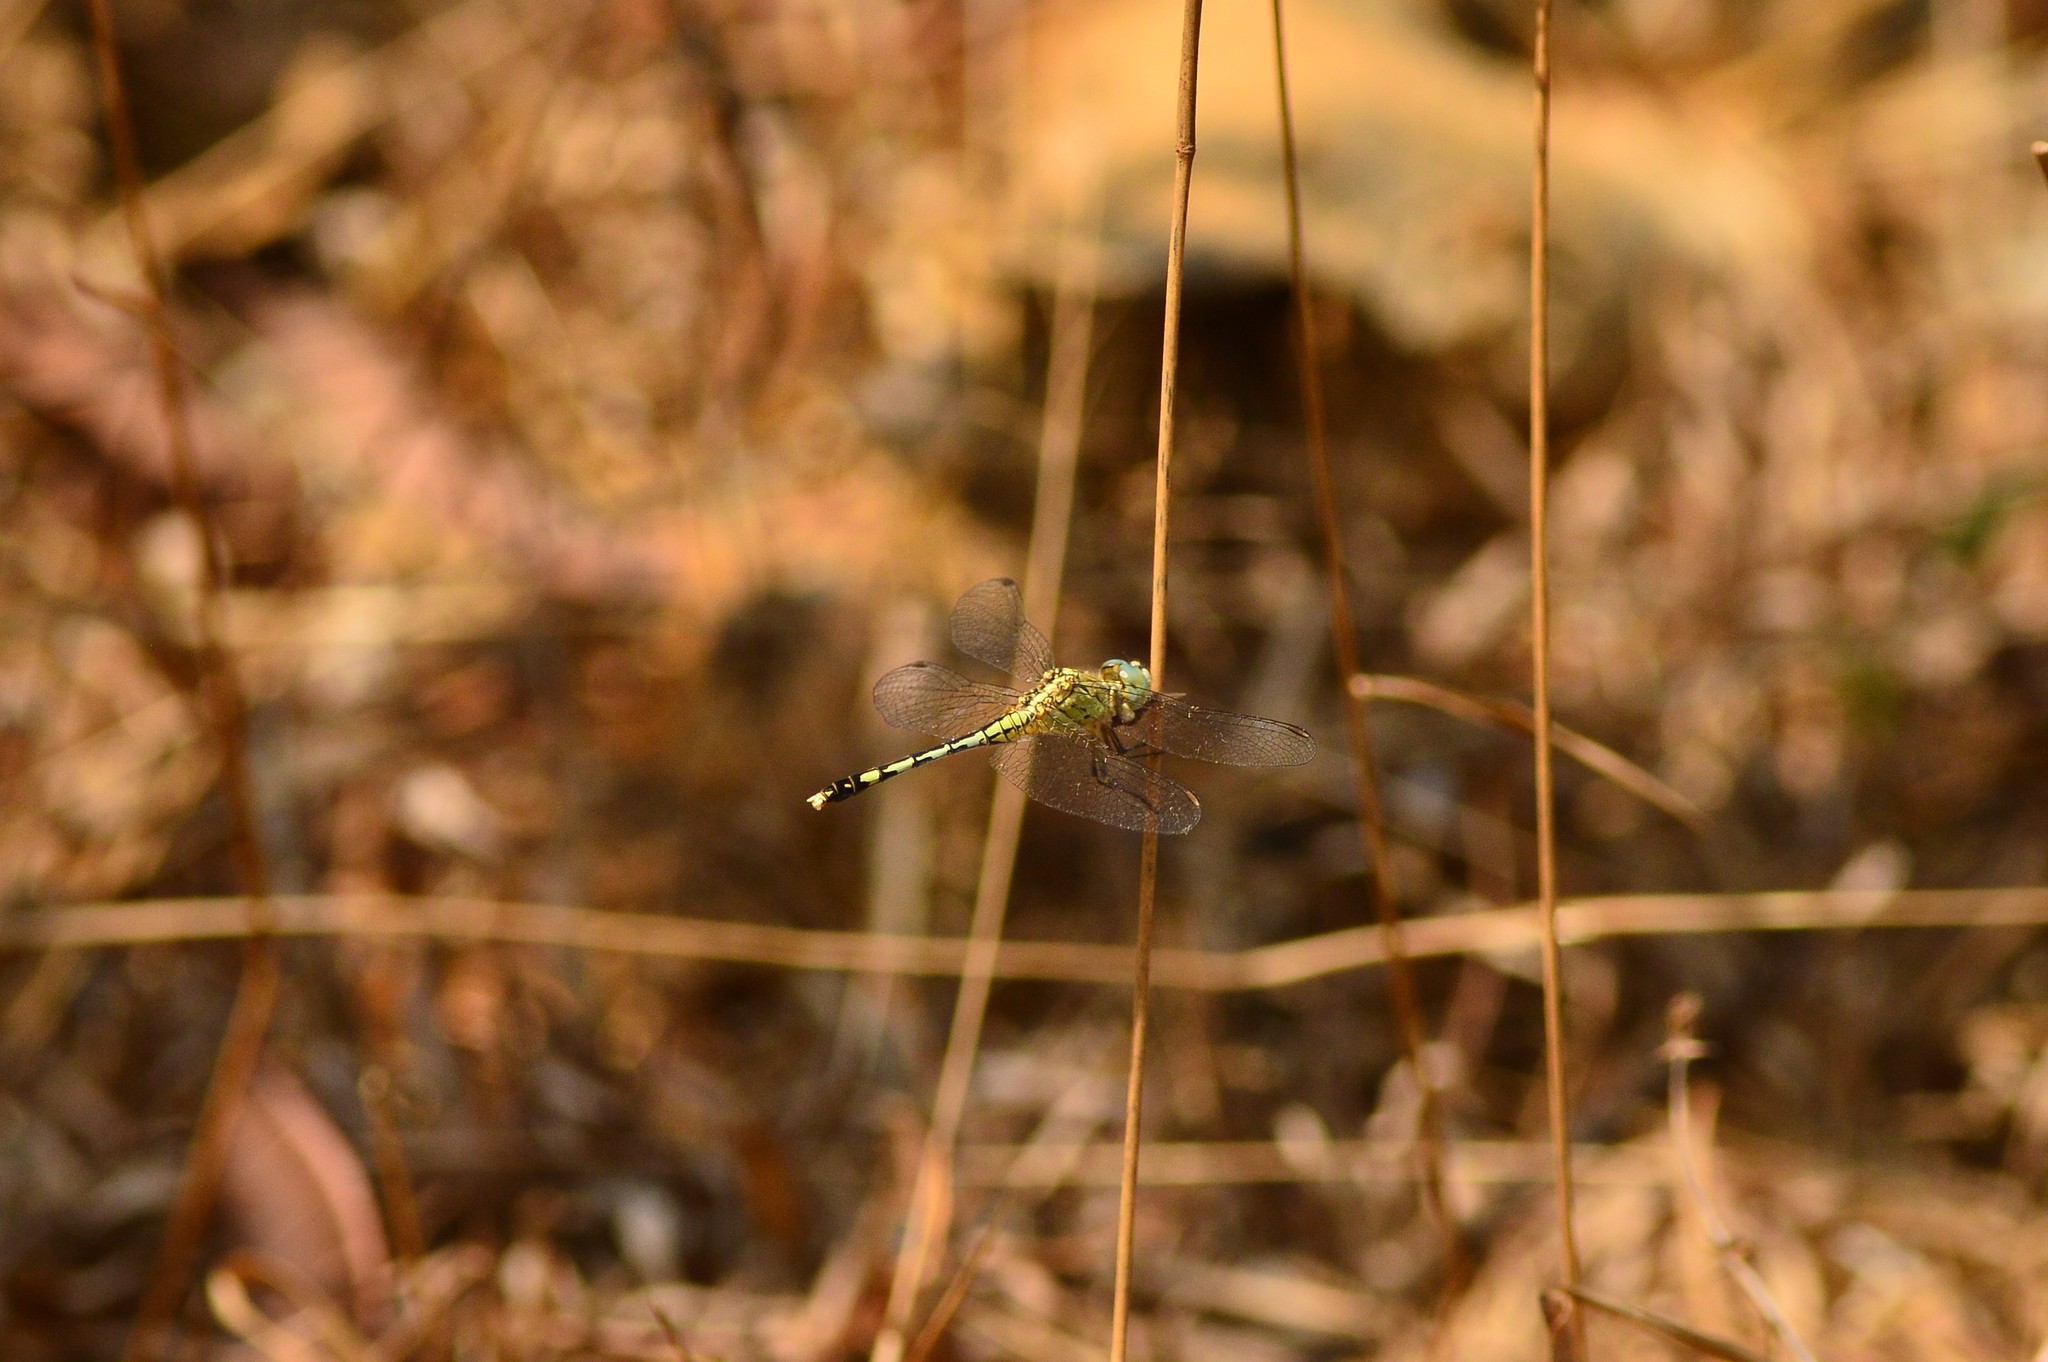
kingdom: Animalia
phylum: Arthropoda
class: Insecta
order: Odonata
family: Libellulidae
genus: Diplacodes
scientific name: Diplacodes trivialis
